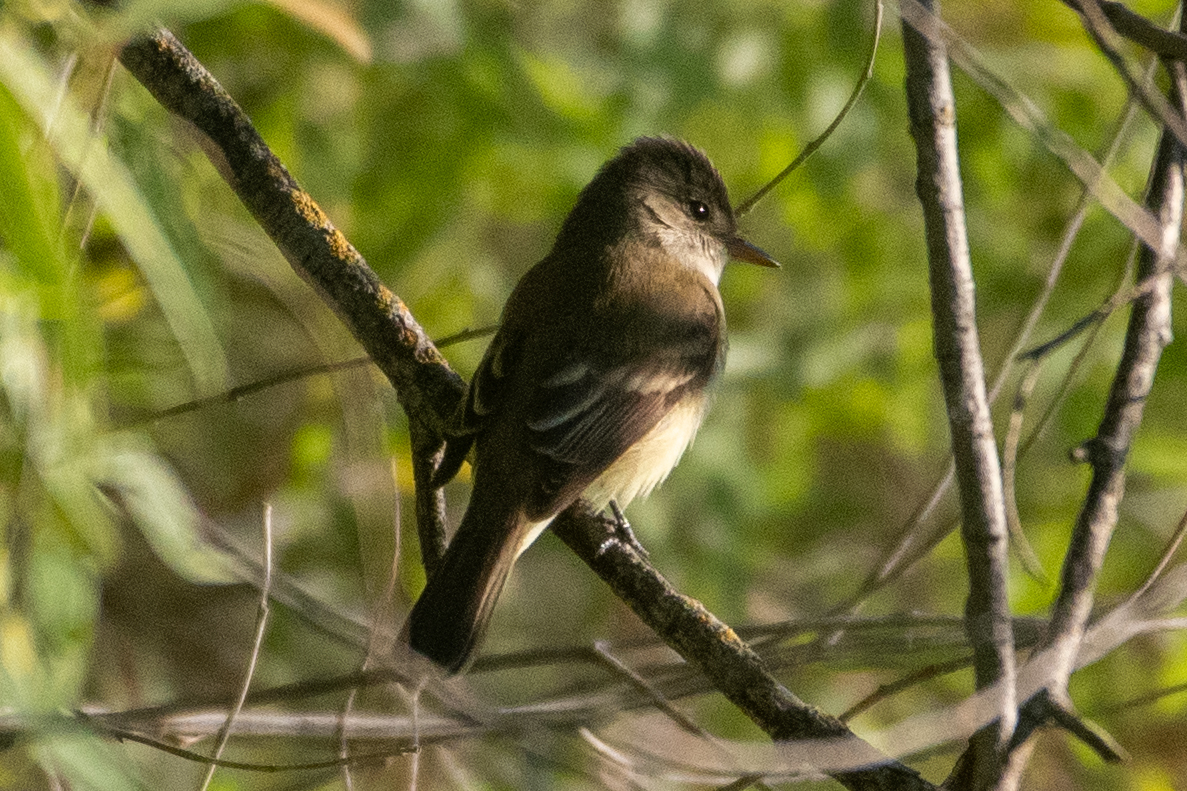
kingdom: Animalia
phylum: Chordata
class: Aves
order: Passeriformes
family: Tyrannidae
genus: Empidonax
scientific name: Empidonax traillii
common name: Willow flycatcher
